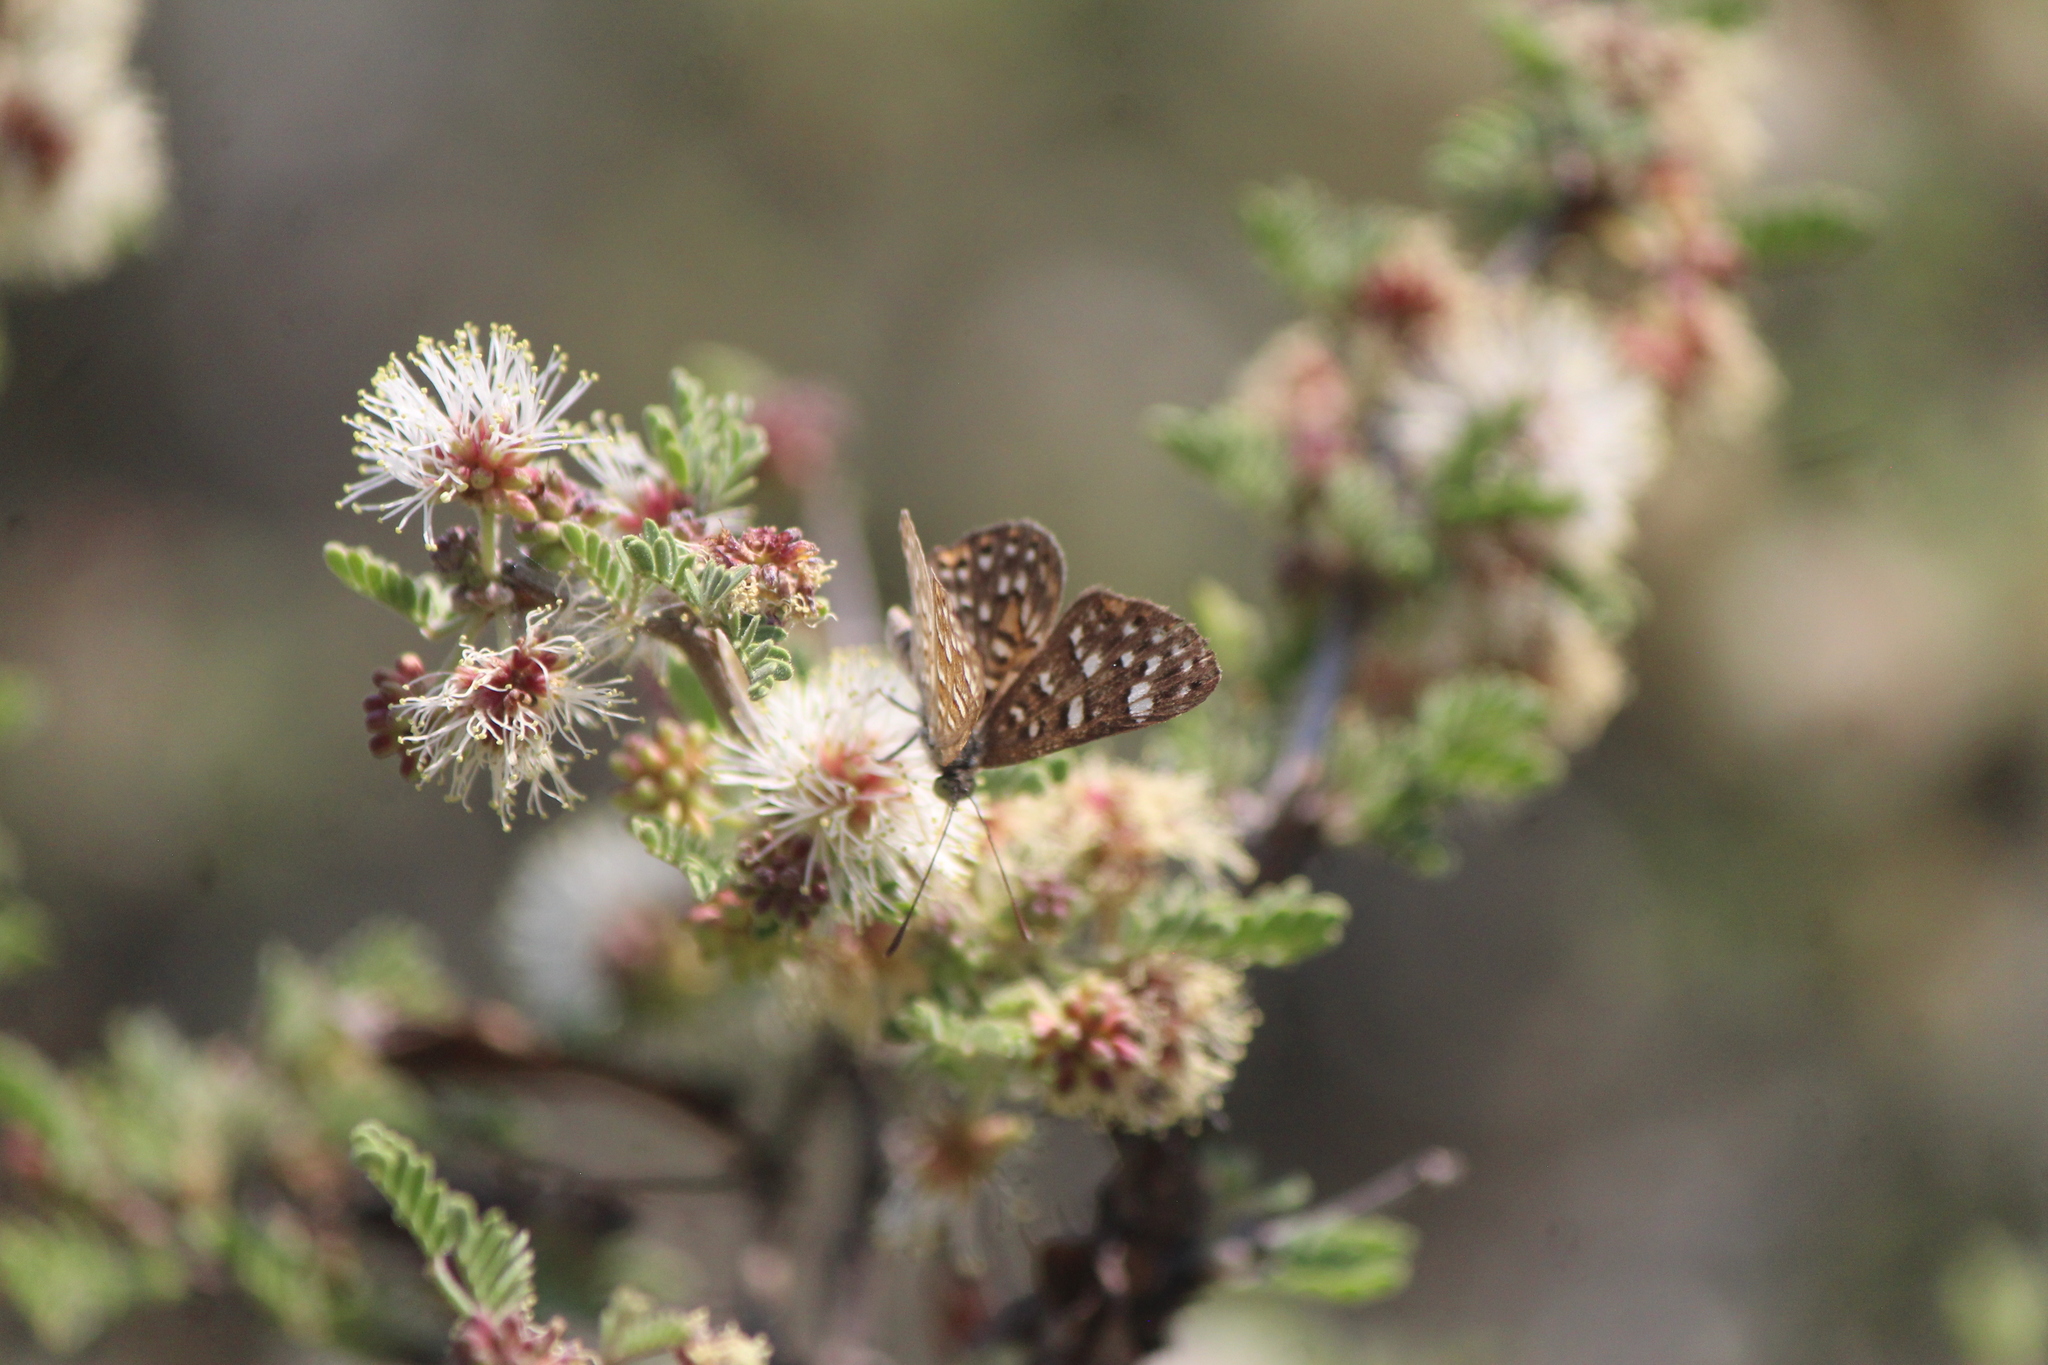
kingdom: Animalia
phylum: Arthropoda
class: Insecta
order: Lepidoptera
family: Riodinidae
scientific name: Riodinidae
